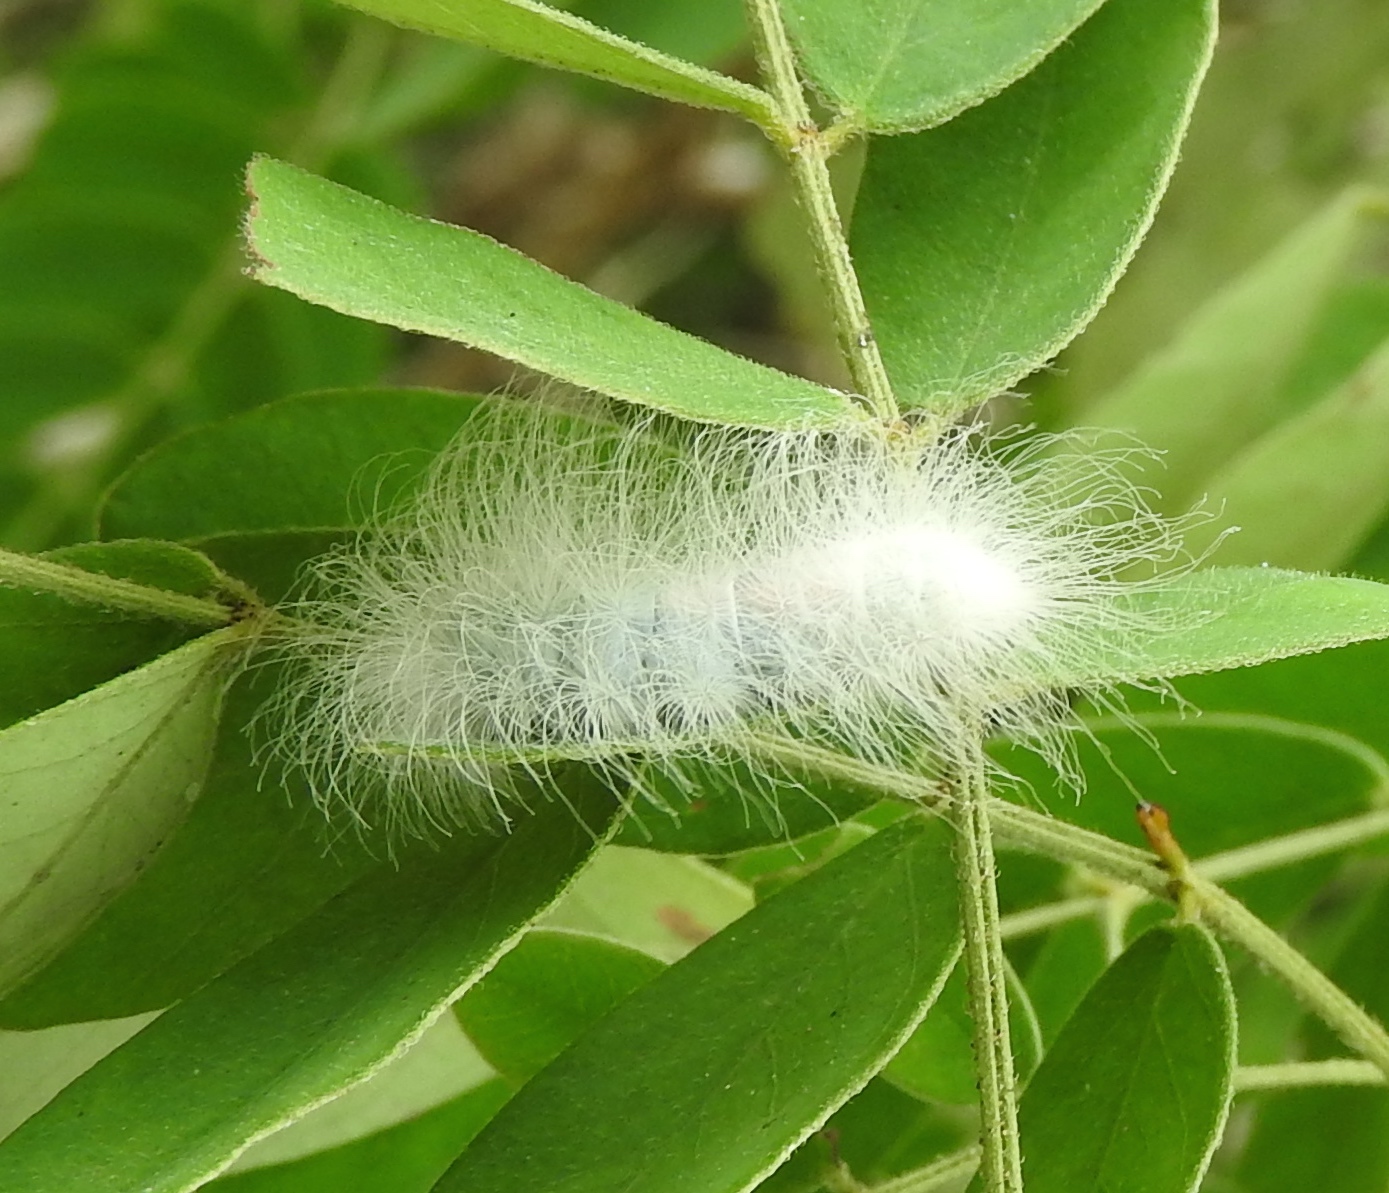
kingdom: Animalia
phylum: Arthropoda
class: Insecta
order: Lepidoptera
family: Erebidae
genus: Eudesmia
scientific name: Eudesmia
